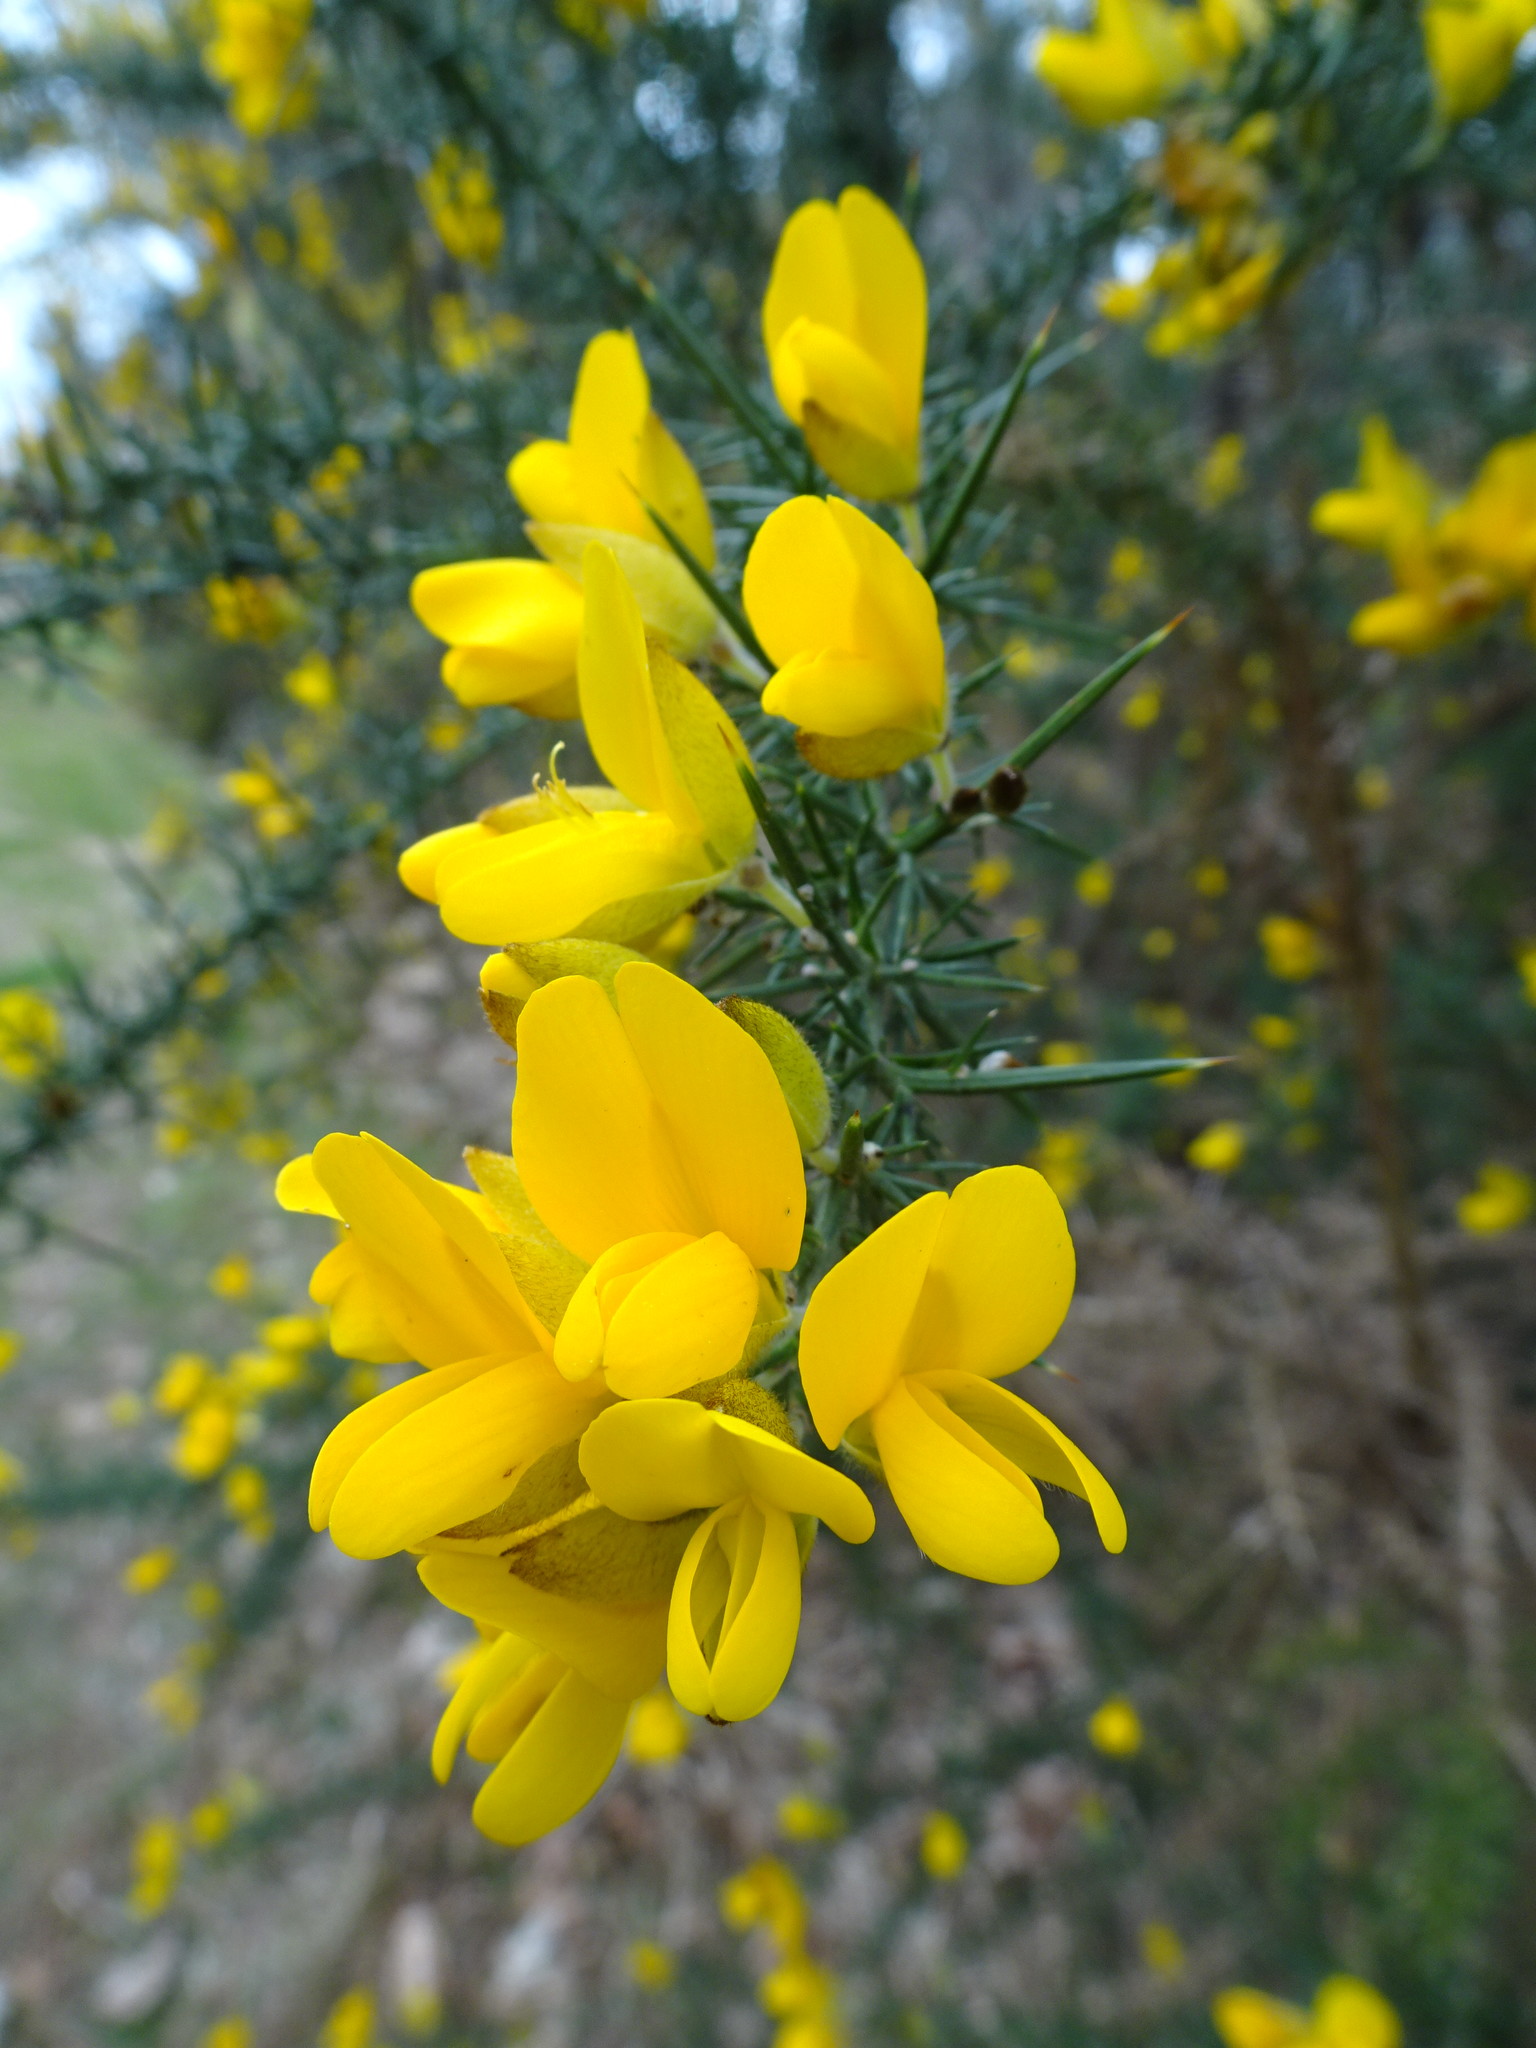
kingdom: Plantae
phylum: Tracheophyta
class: Magnoliopsida
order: Fabales
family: Fabaceae
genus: Ulex
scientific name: Ulex europaeus
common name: Common gorse
